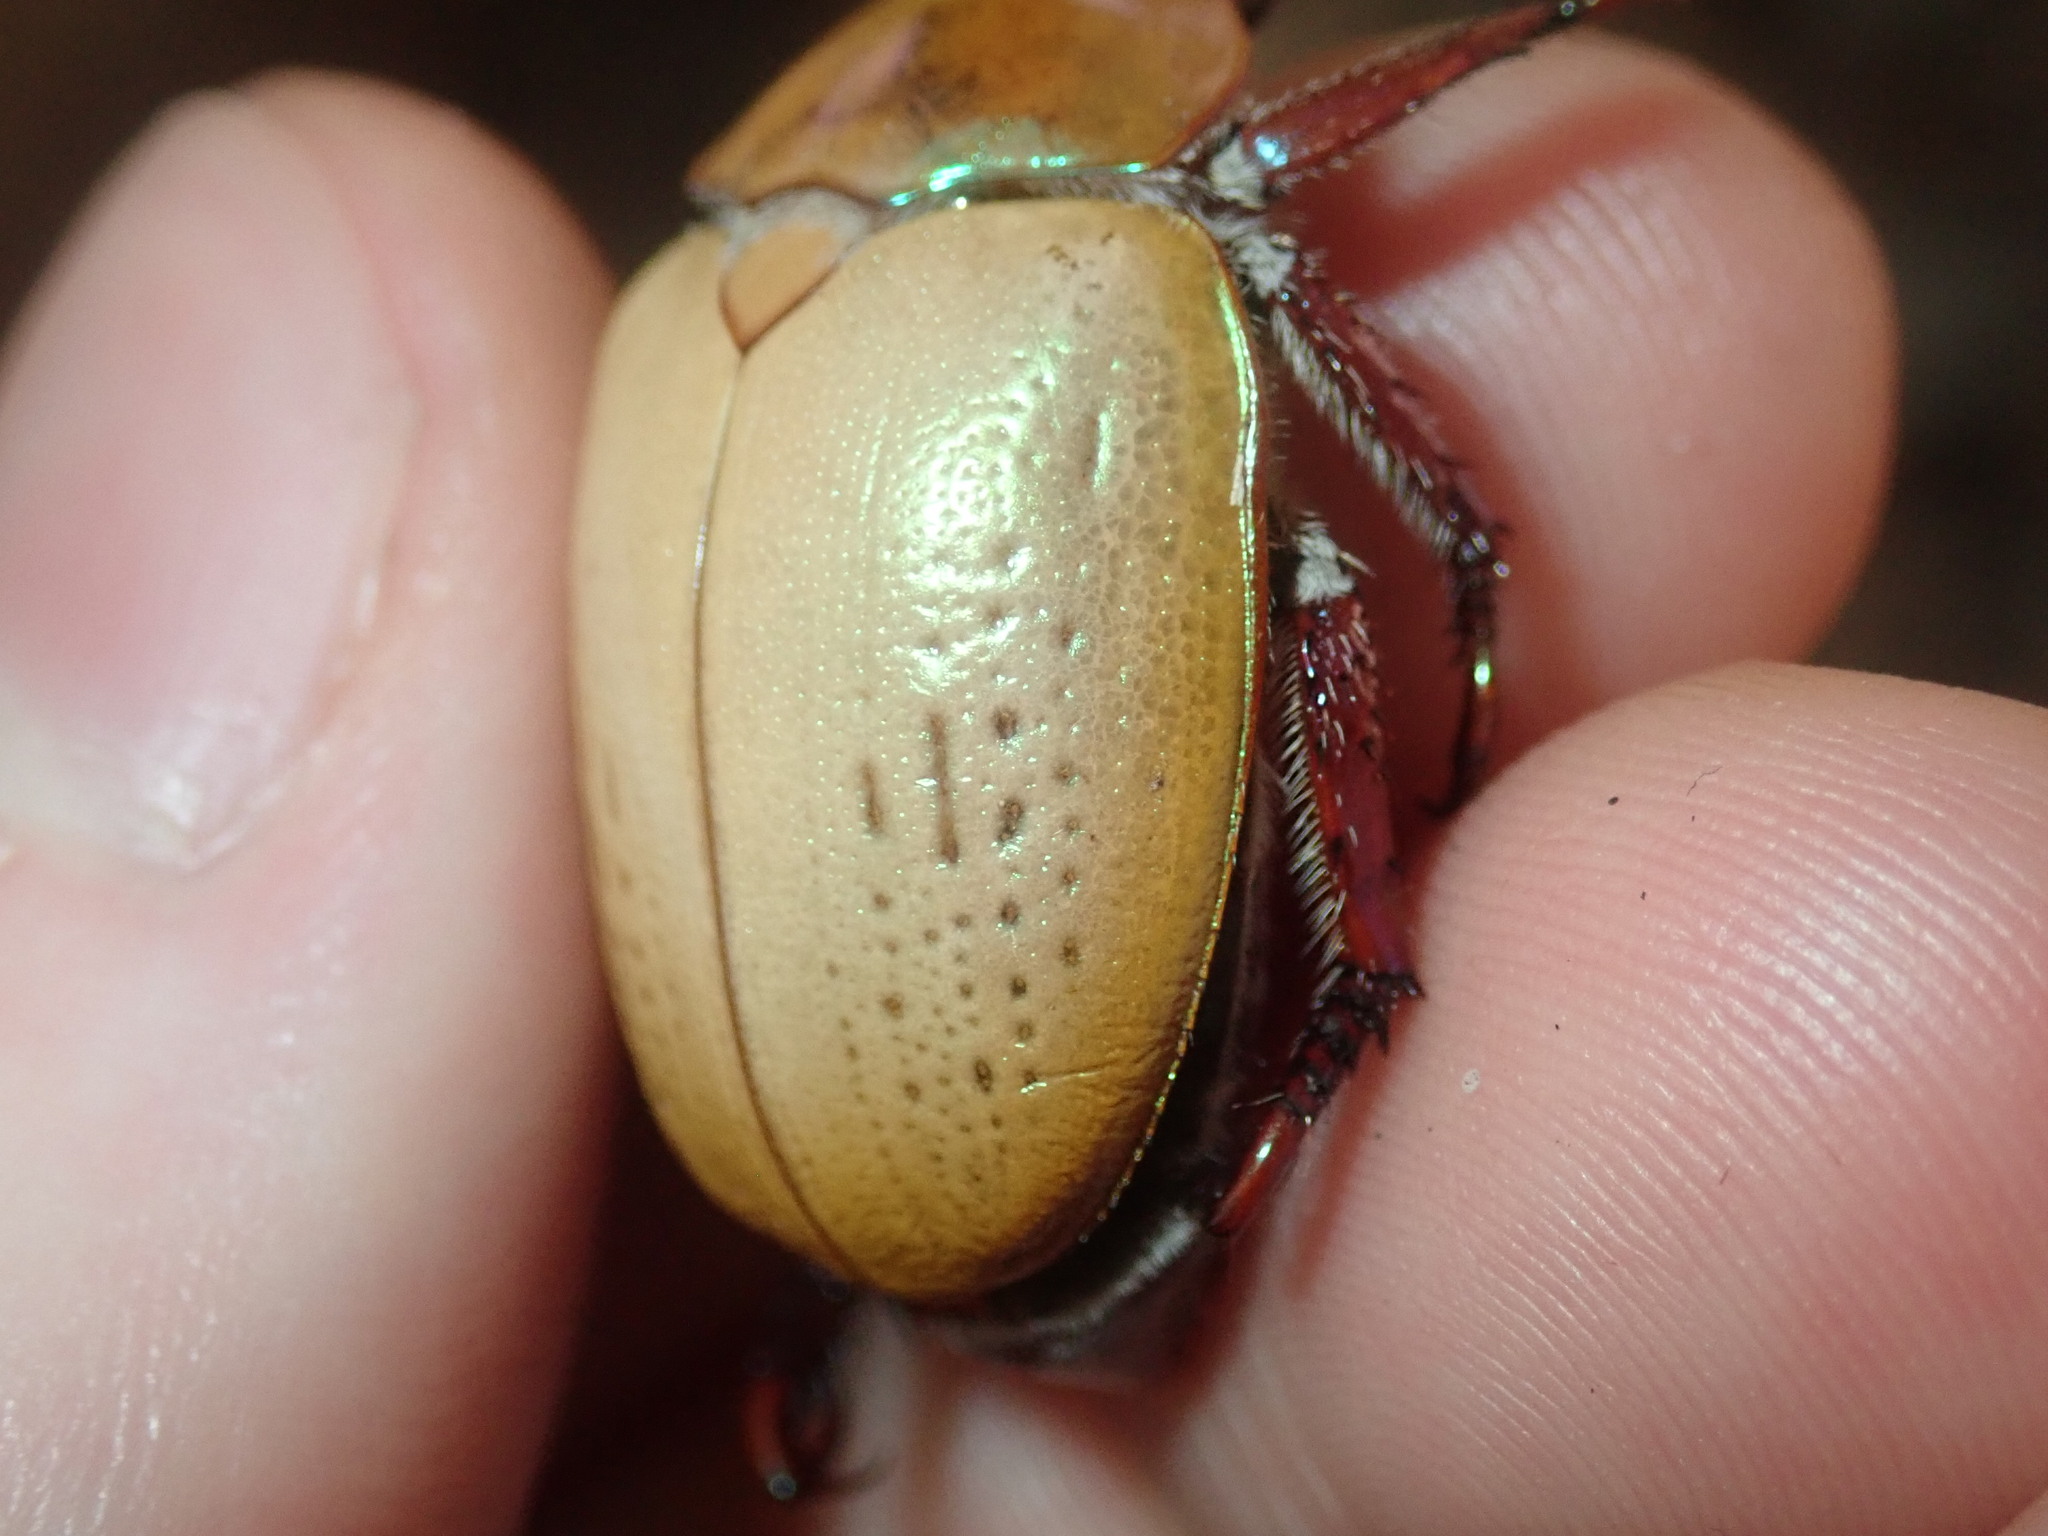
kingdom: Animalia
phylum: Arthropoda
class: Insecta
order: Coleoptera
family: Scarabaeidae
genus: Anoplognathus
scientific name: Anoplognathus olivieri
